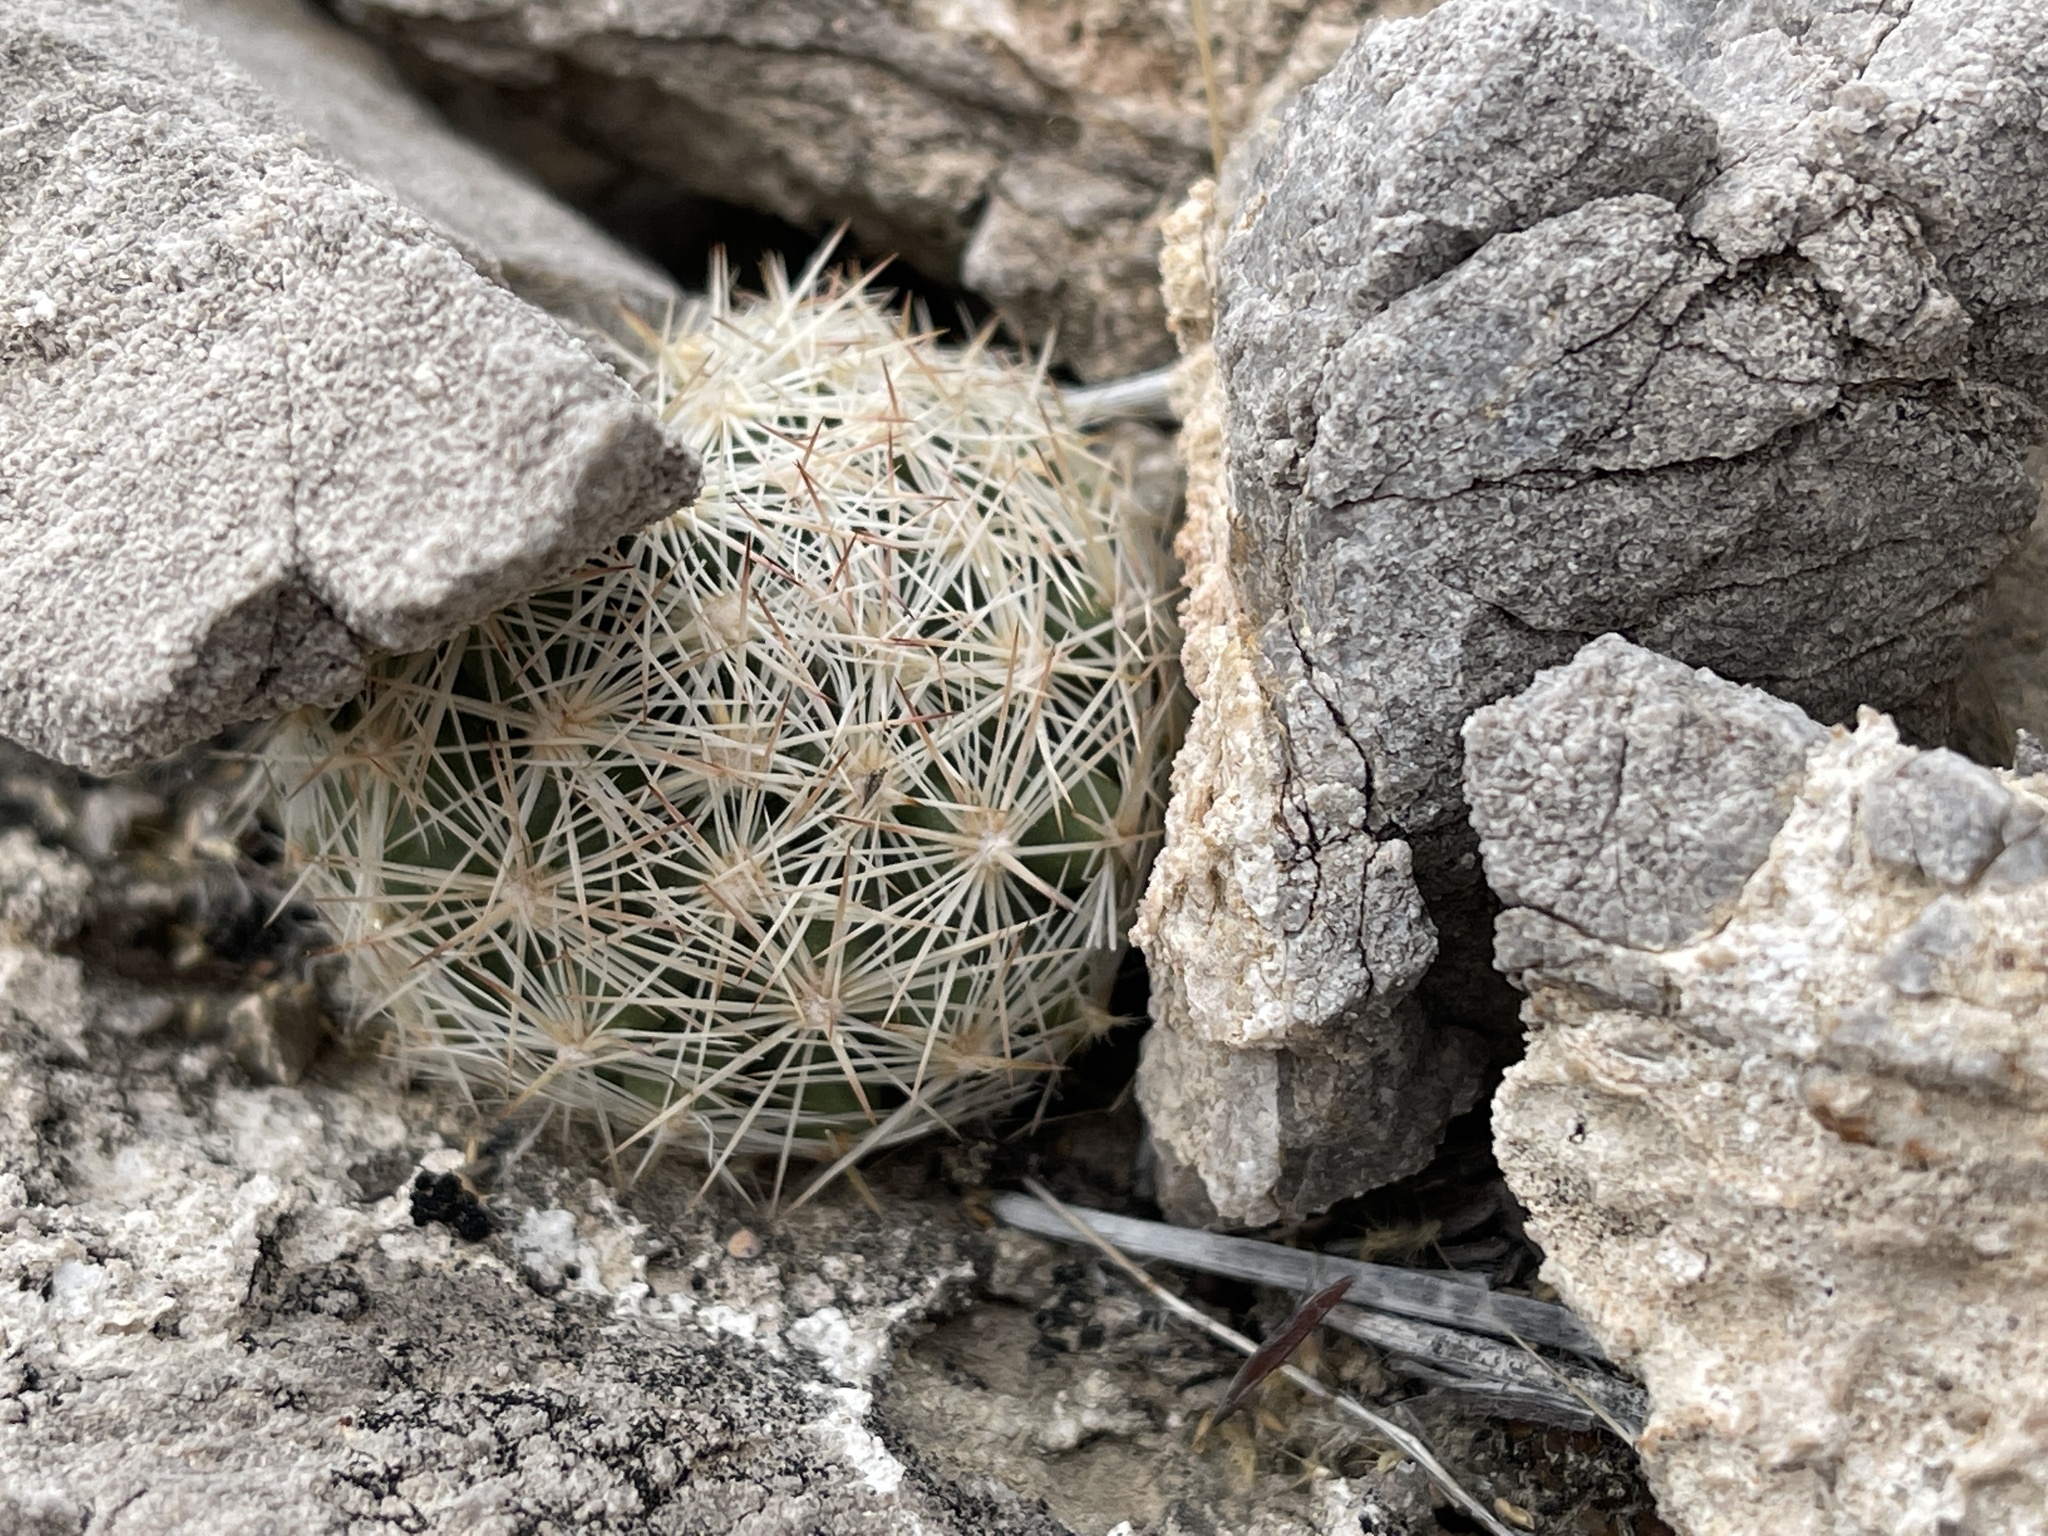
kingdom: Plantae
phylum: Tracheophyta
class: Magnoliopsida
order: Caryophyllales
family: Cactaceae
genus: Pelecyphora
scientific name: Pelecyphora dasyacantha
